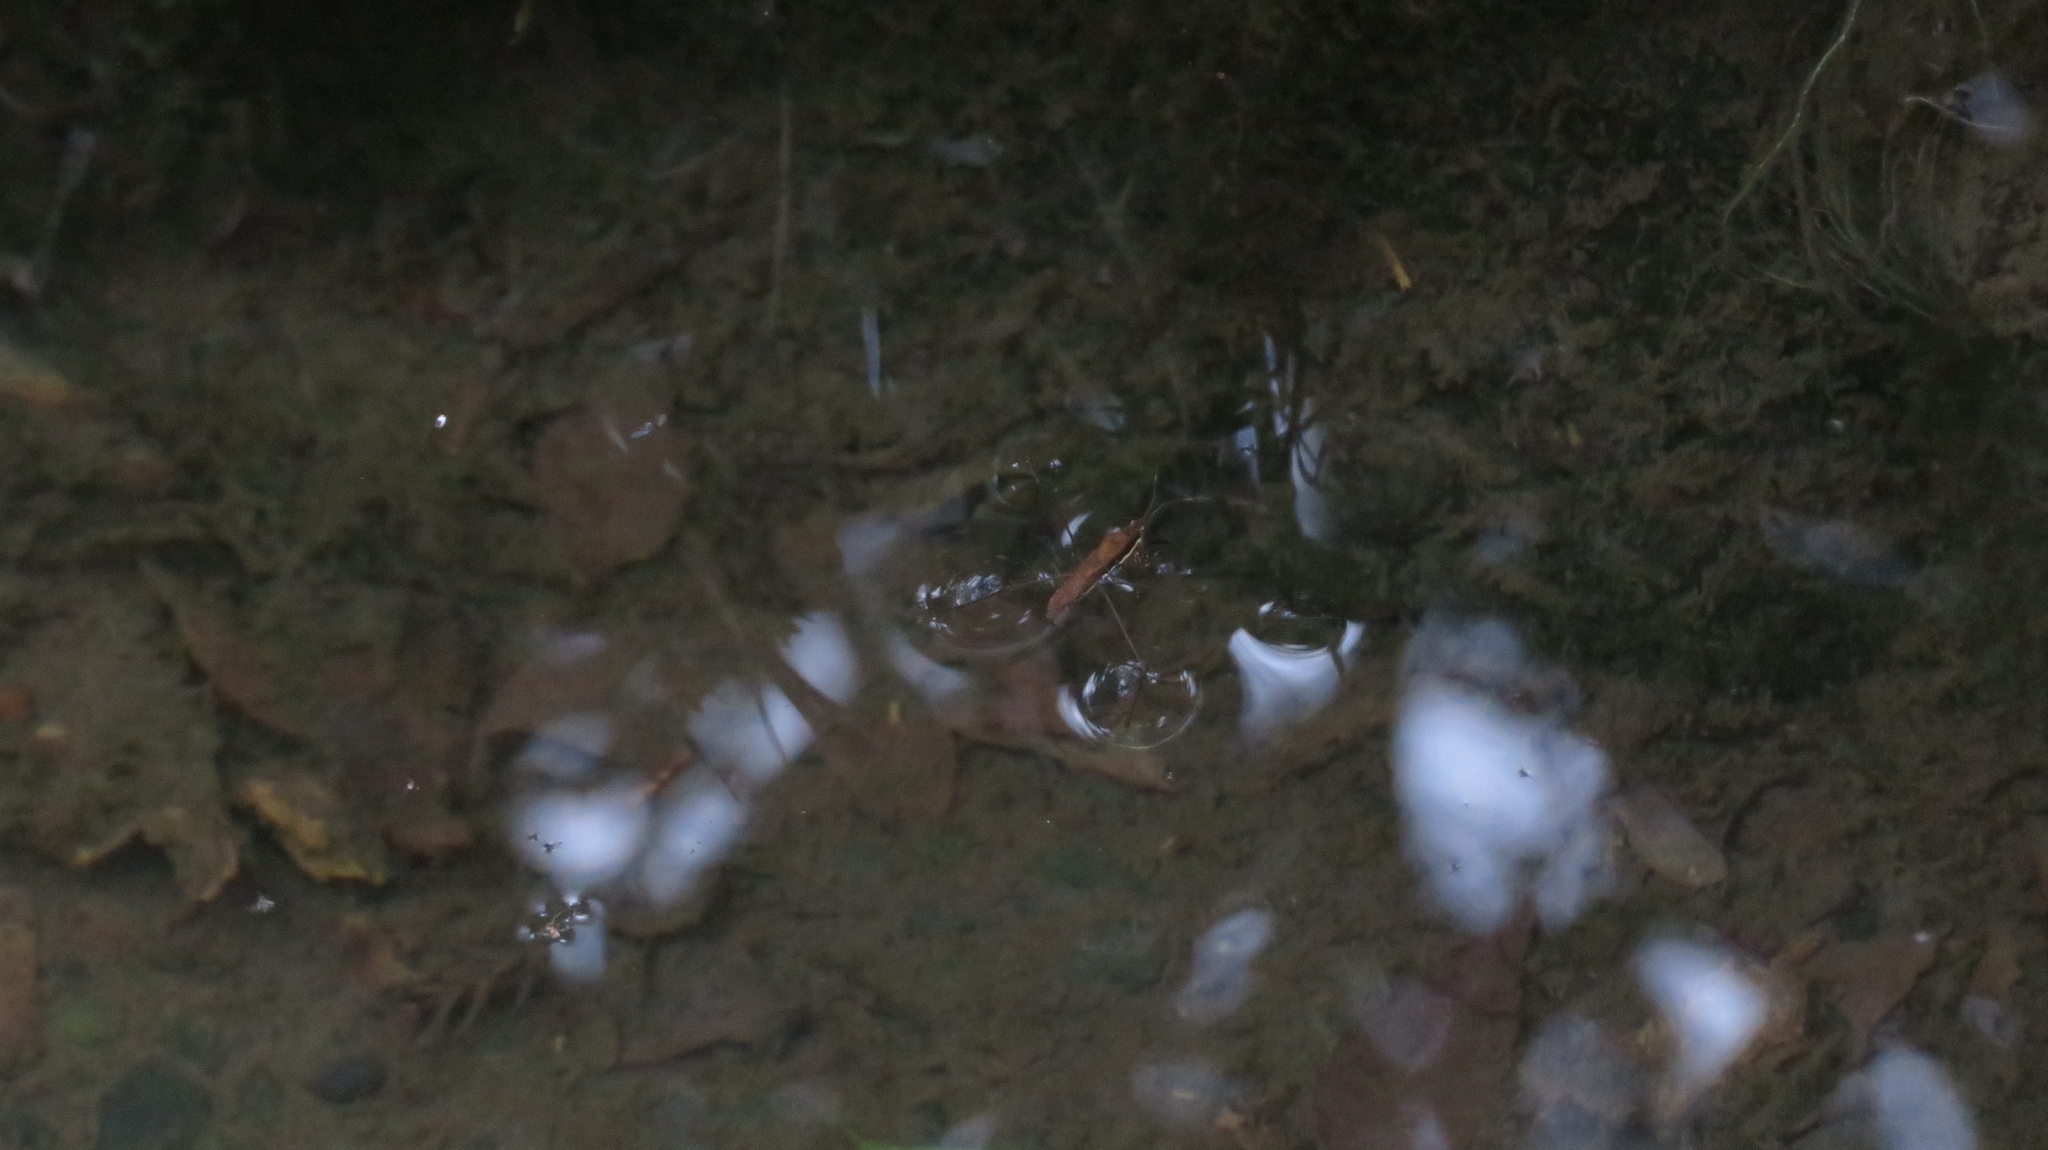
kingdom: Animalia
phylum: Arthropoda
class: Insecta
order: Hemiptera
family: Gerridae
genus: Gerris
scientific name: Gerris gracilicornis
